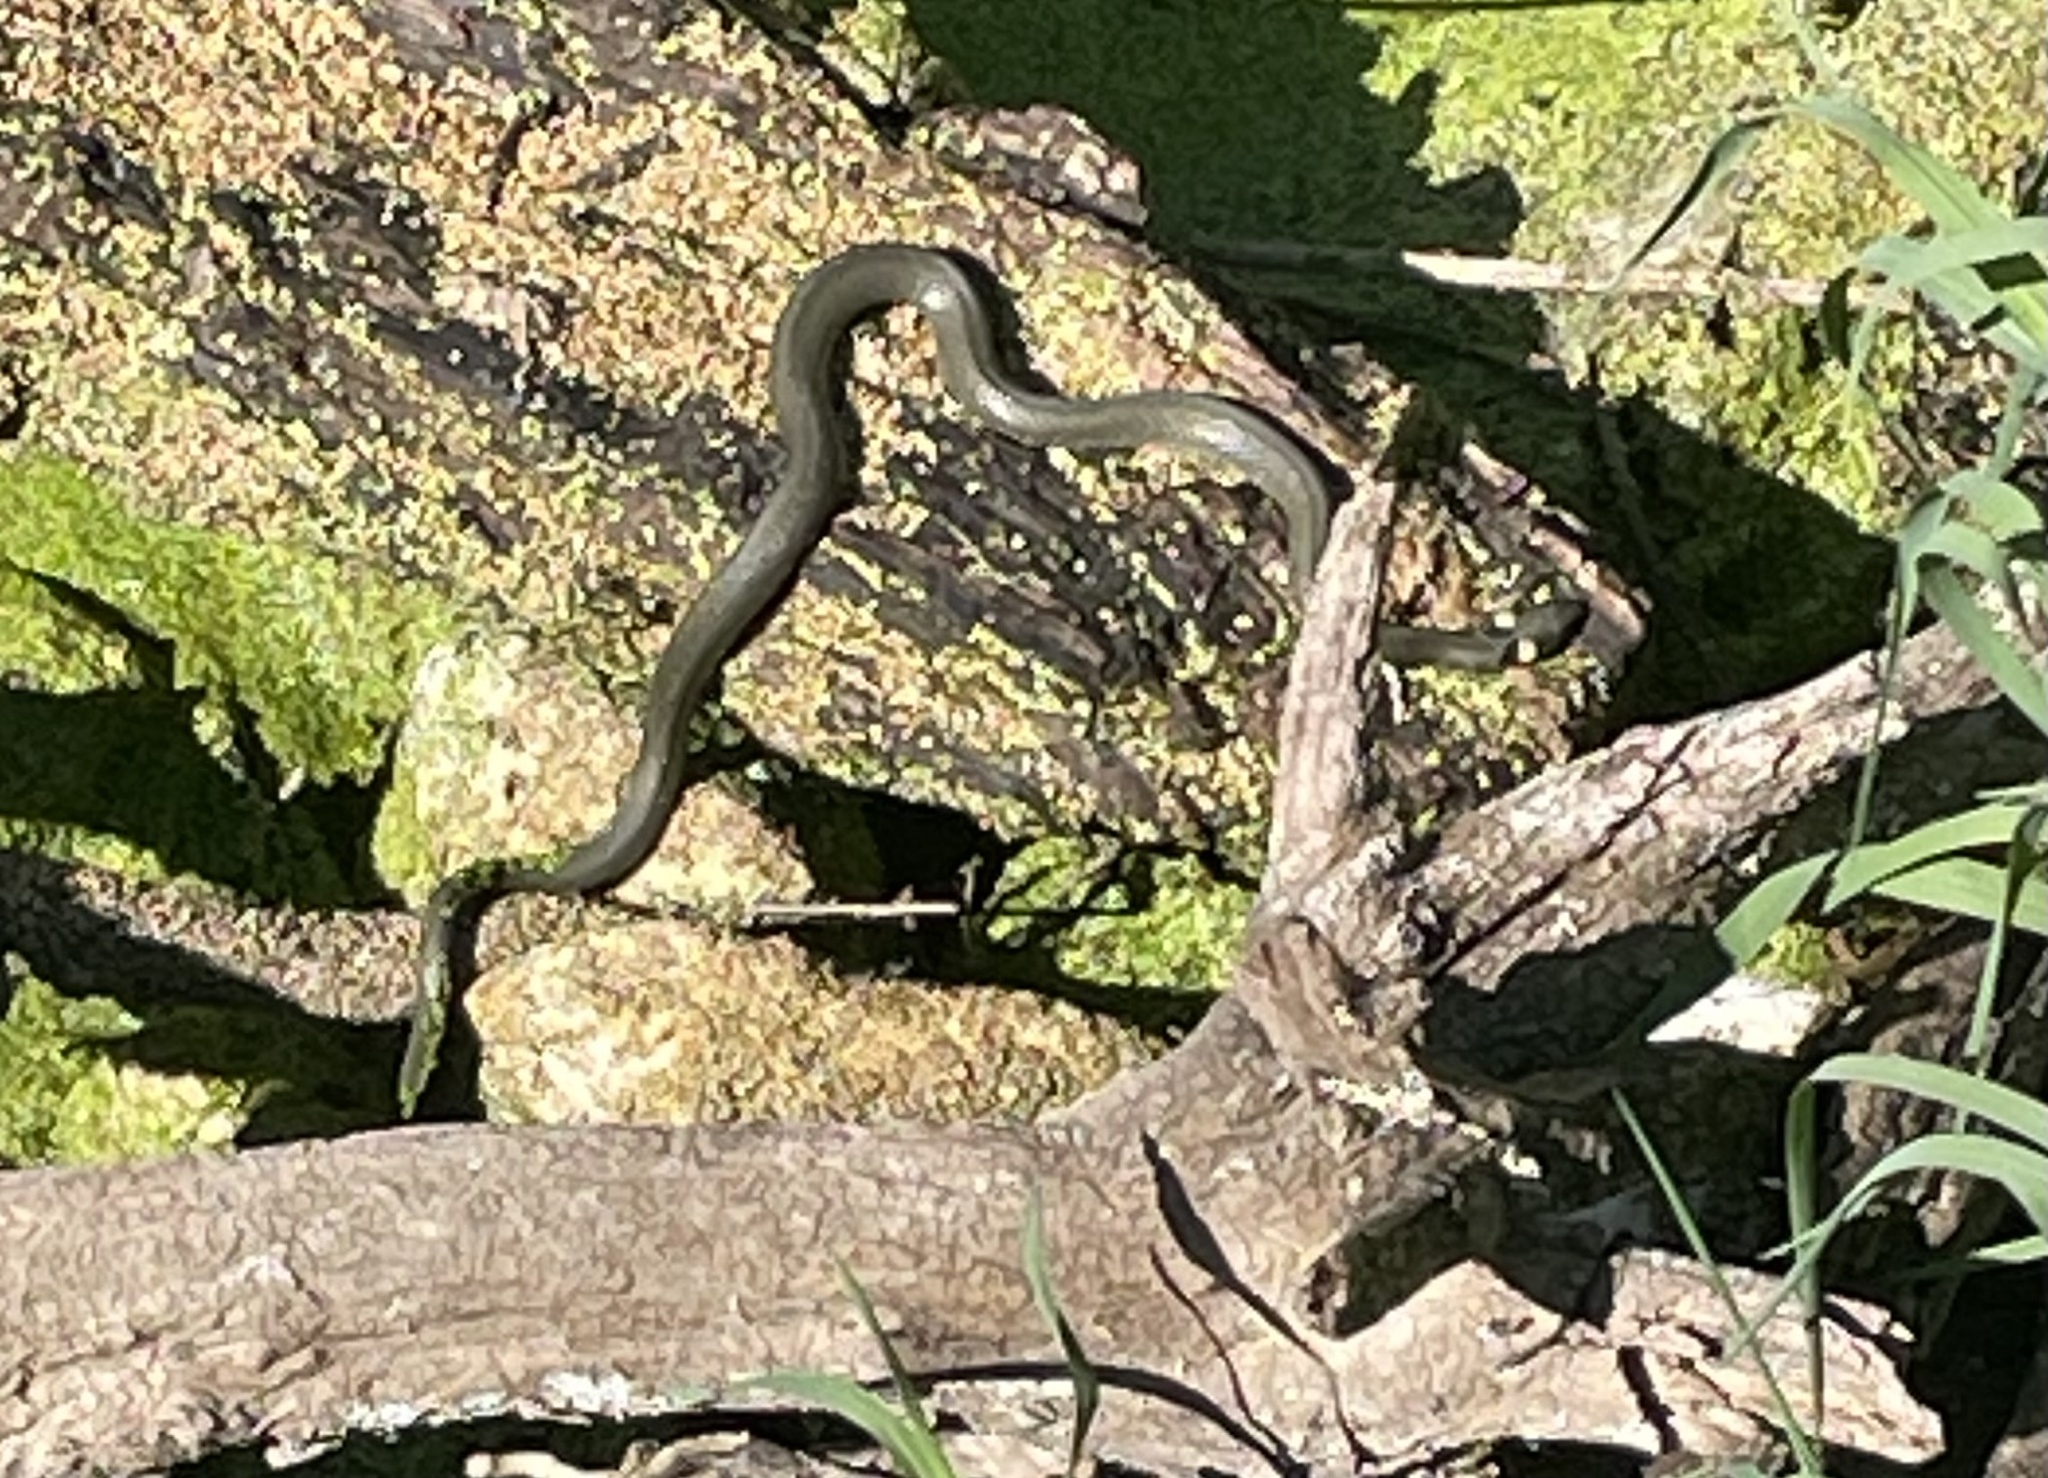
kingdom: Animalia
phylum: Chordata
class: Squamata
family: Colubridae
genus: Natrix
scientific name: Natrix natrix
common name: Grass snake
